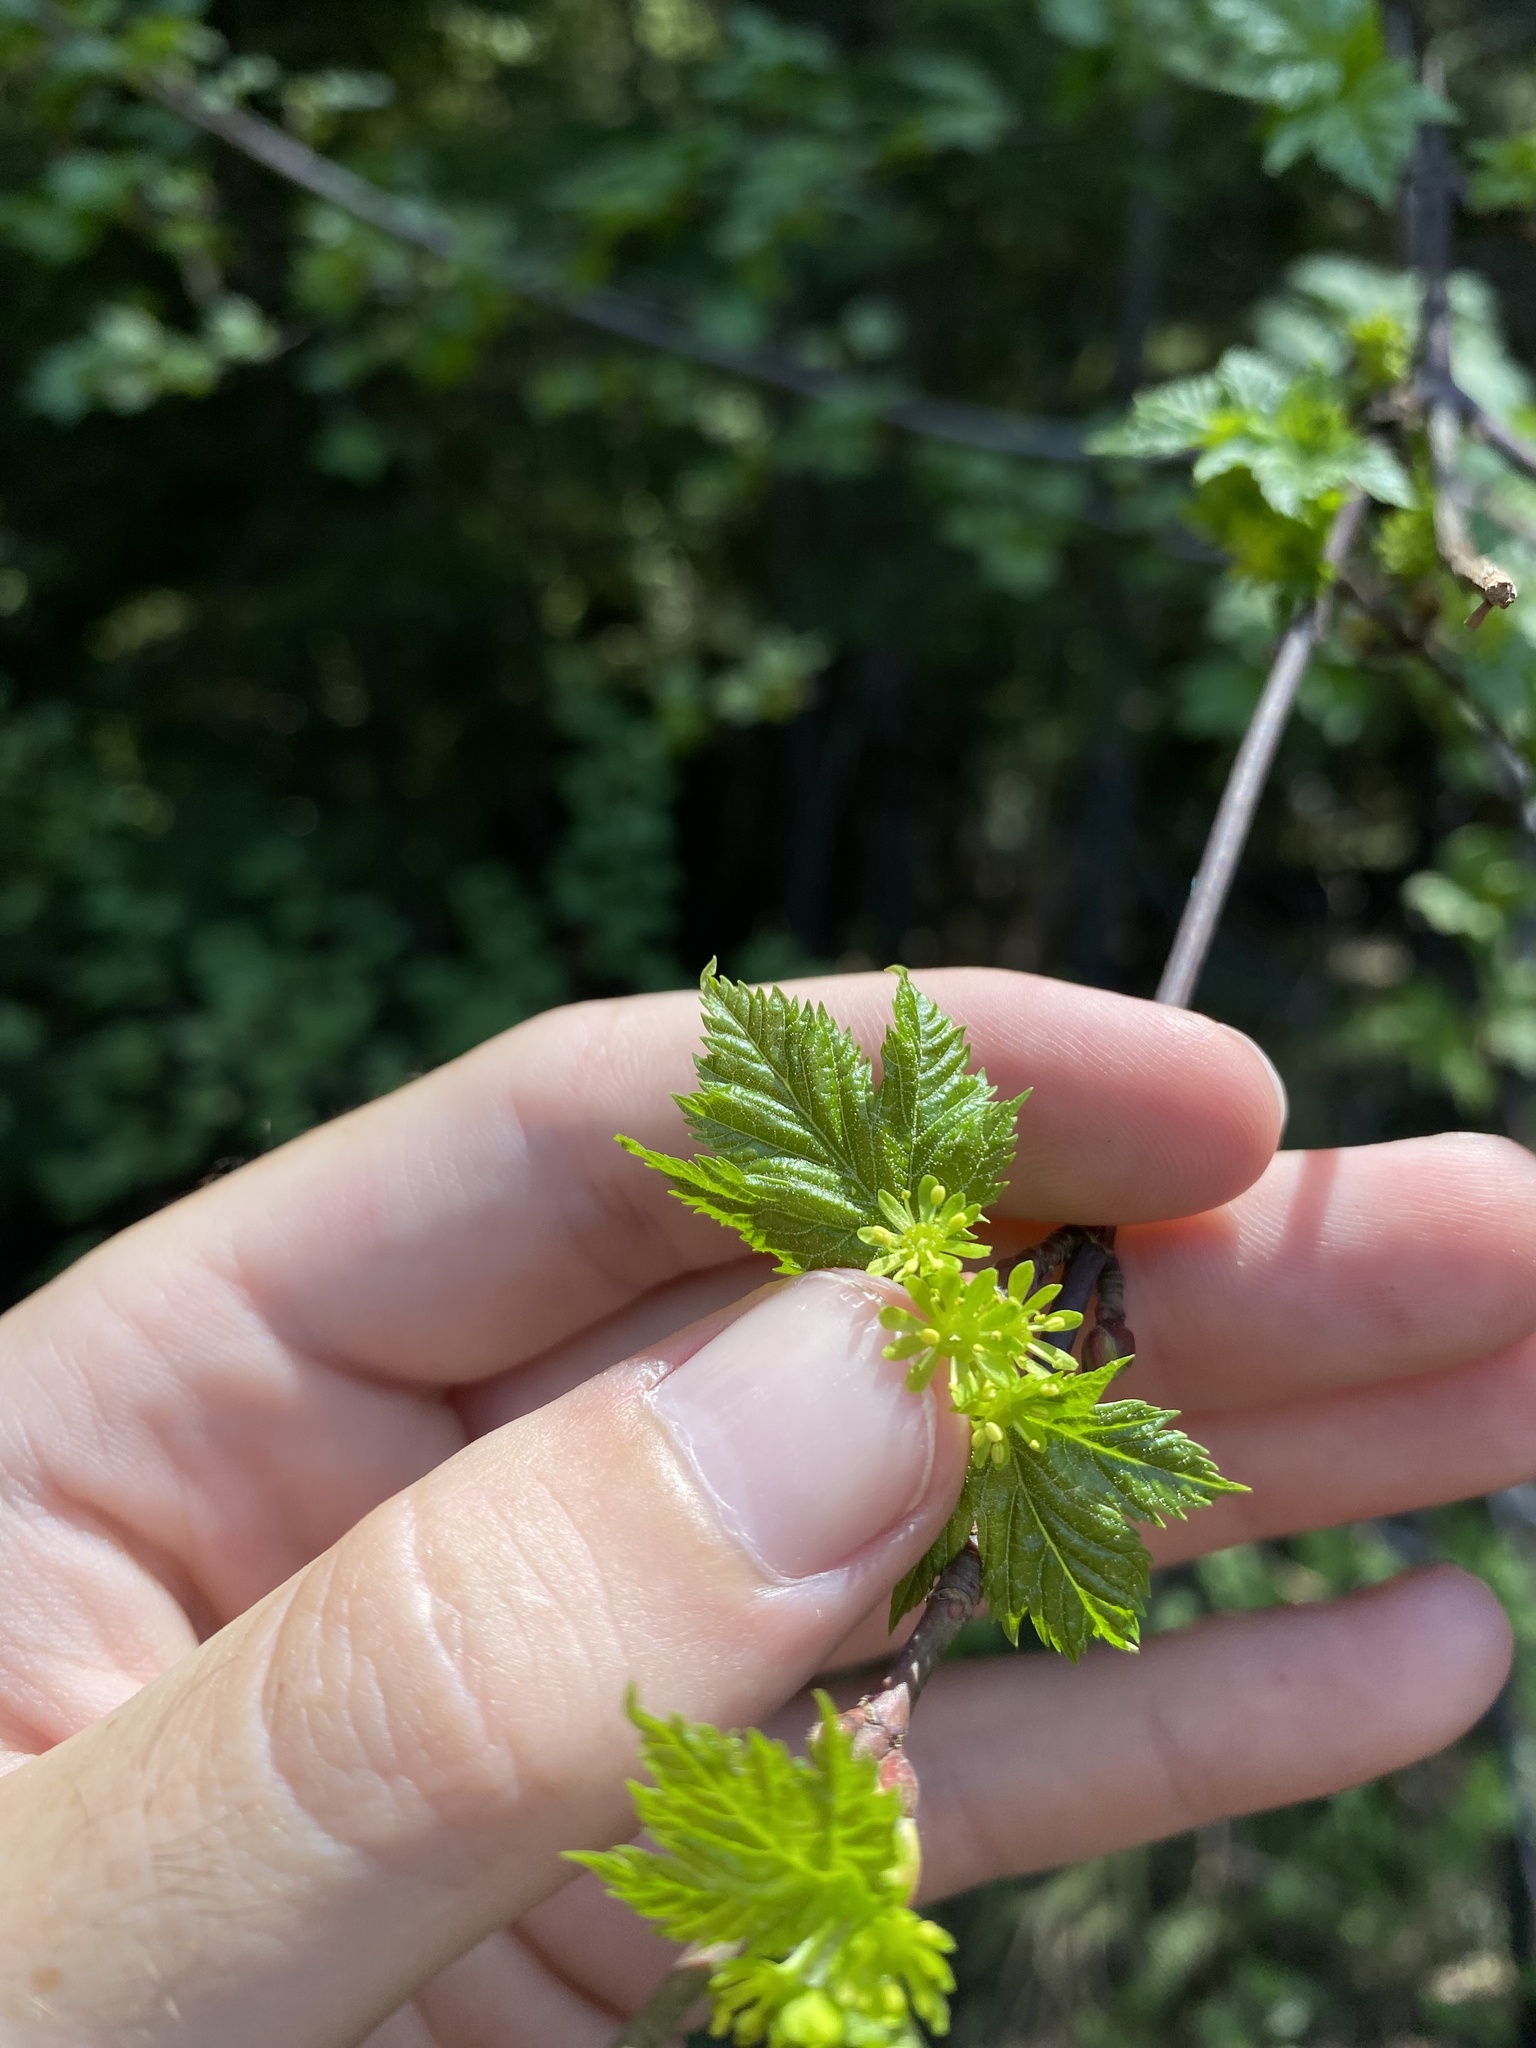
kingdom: Plantae
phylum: Tracheophyta
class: Magnoliopsida
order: Sapindales
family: Sapindaceae
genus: Acer
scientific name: Acer glabrum
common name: Rocky mountain maple
